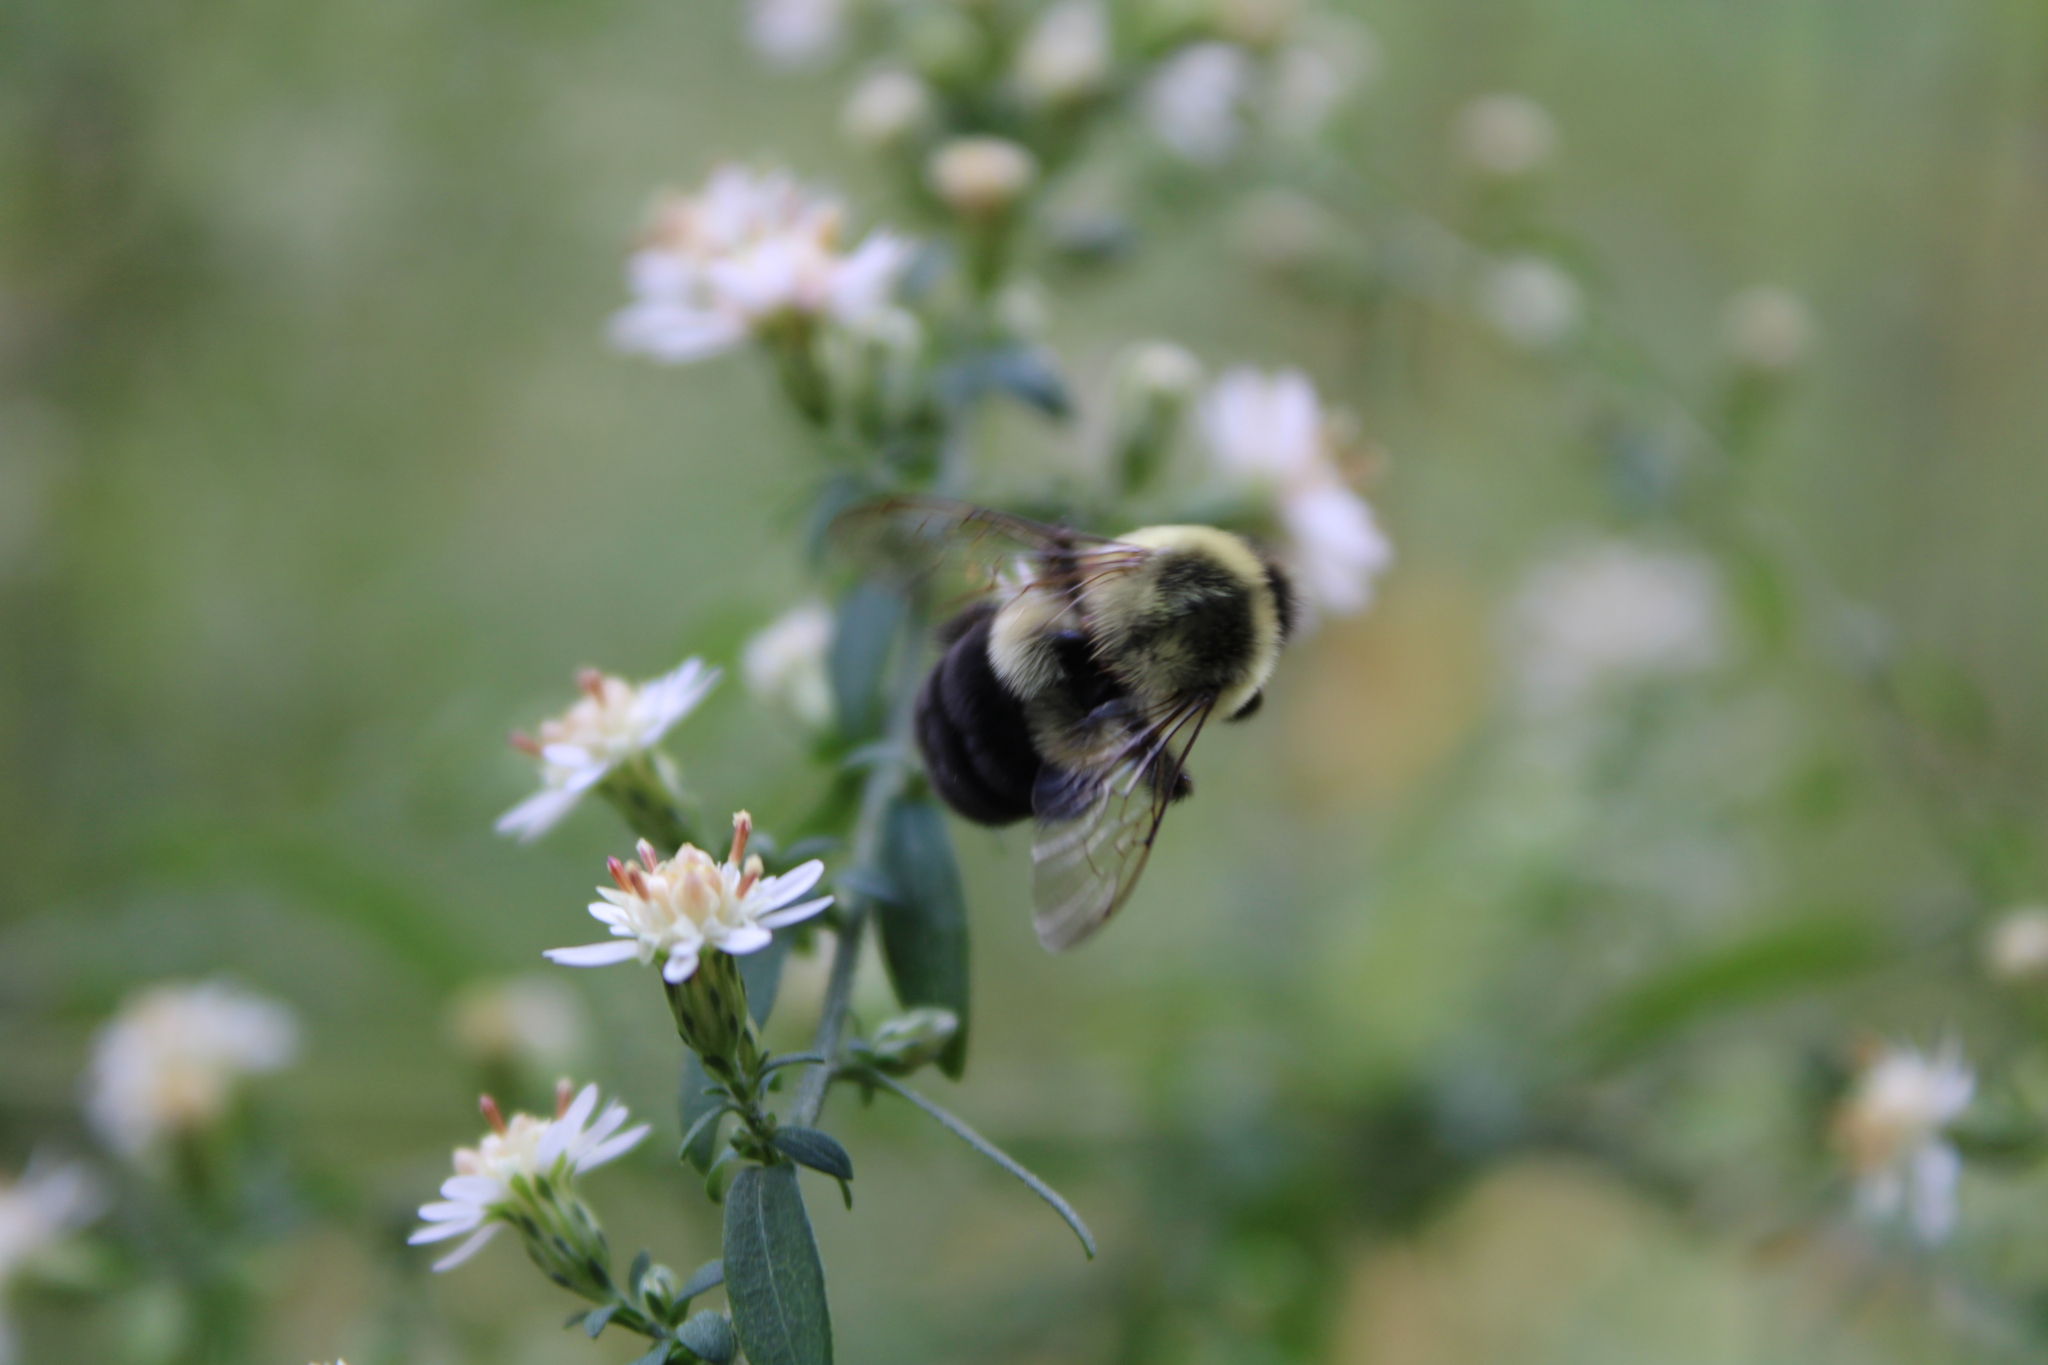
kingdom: Animalia
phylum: Arthropoda
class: Insecta
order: Hymenoptera
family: Apidae
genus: Bombus
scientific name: Bombus impatiens
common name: Common eastern bumble bee
